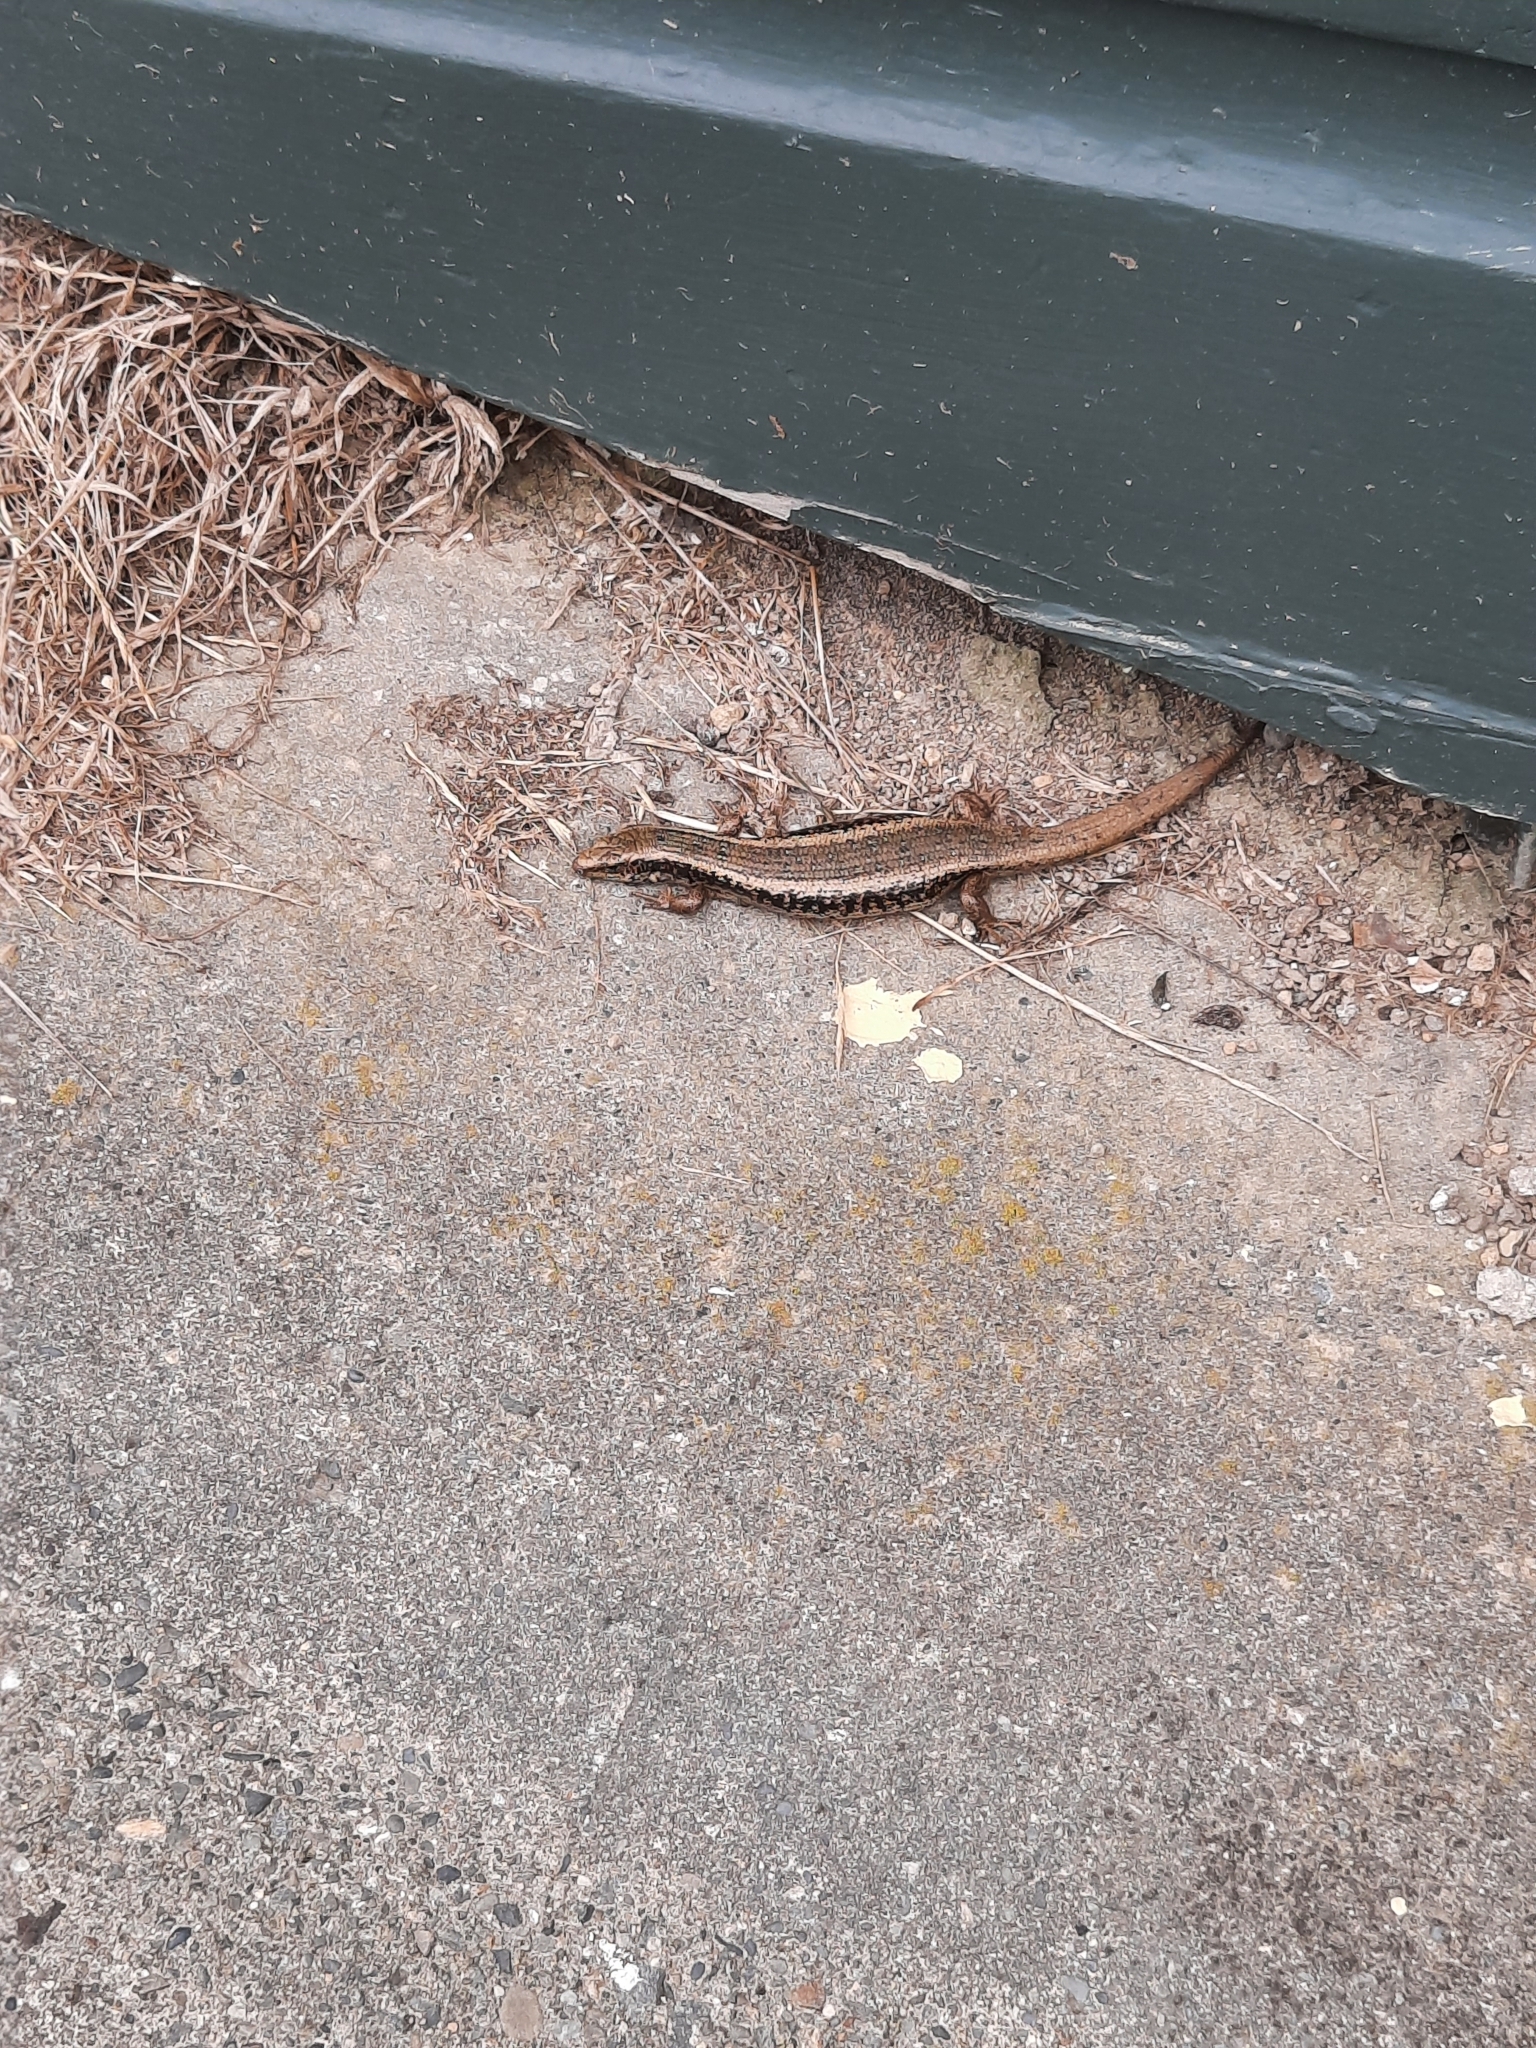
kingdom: Animalia
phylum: Chordata
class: Squamata
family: Scincidae
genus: Oligosoma
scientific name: Oligosoma kokowai
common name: Northern spotted skink
